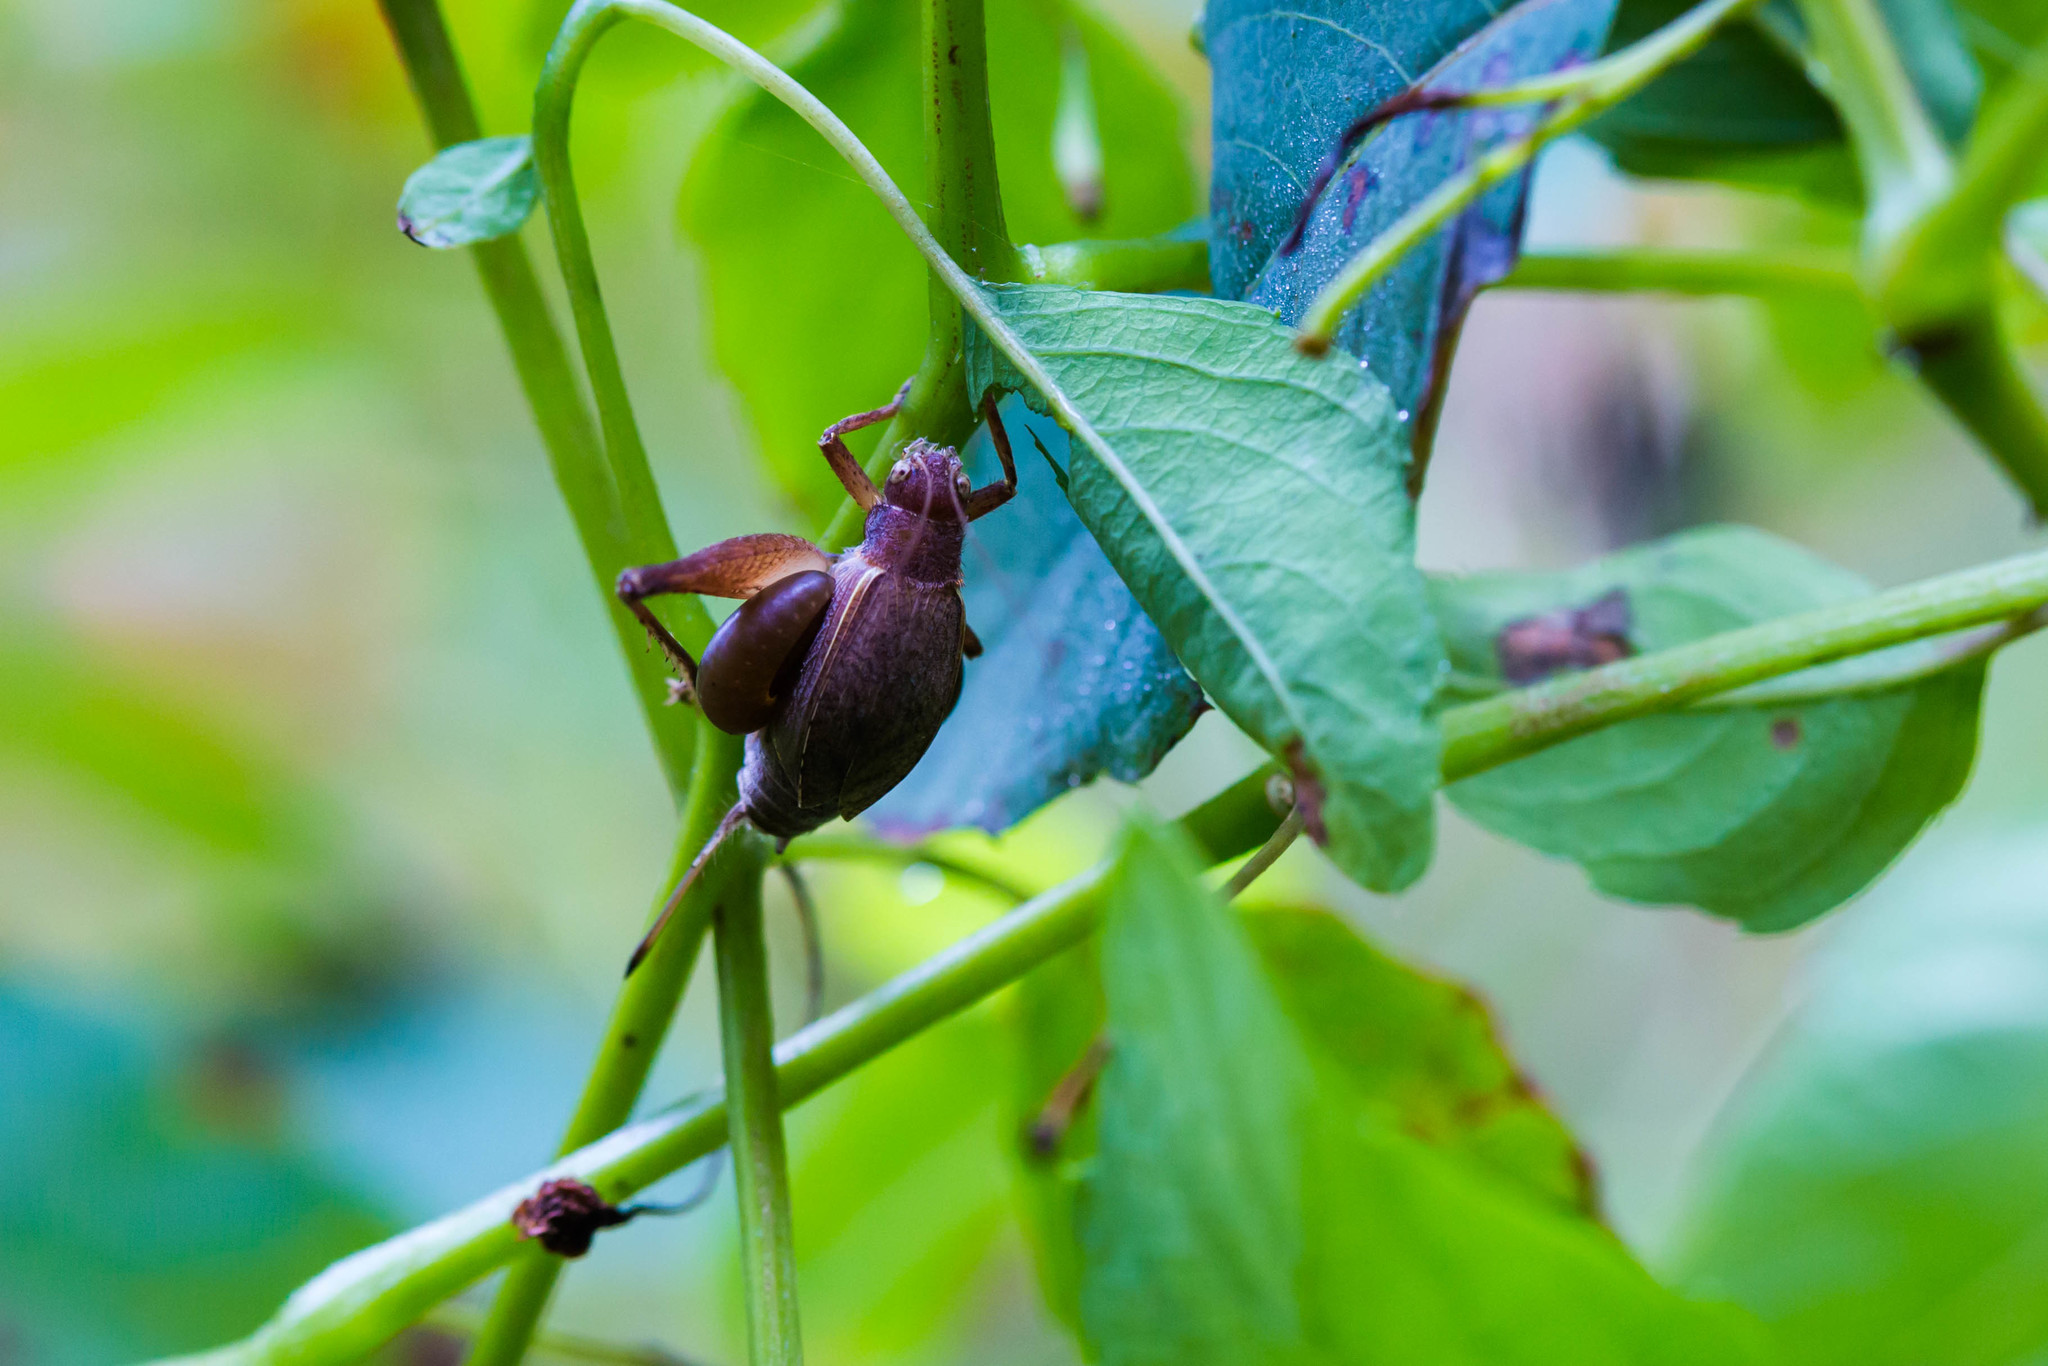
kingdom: Animalia
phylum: Arthropoda
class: Insecta
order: Orthoptera
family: Gryllidae
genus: Hapithus
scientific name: Hapithus agitator
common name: Restless bush cricket
